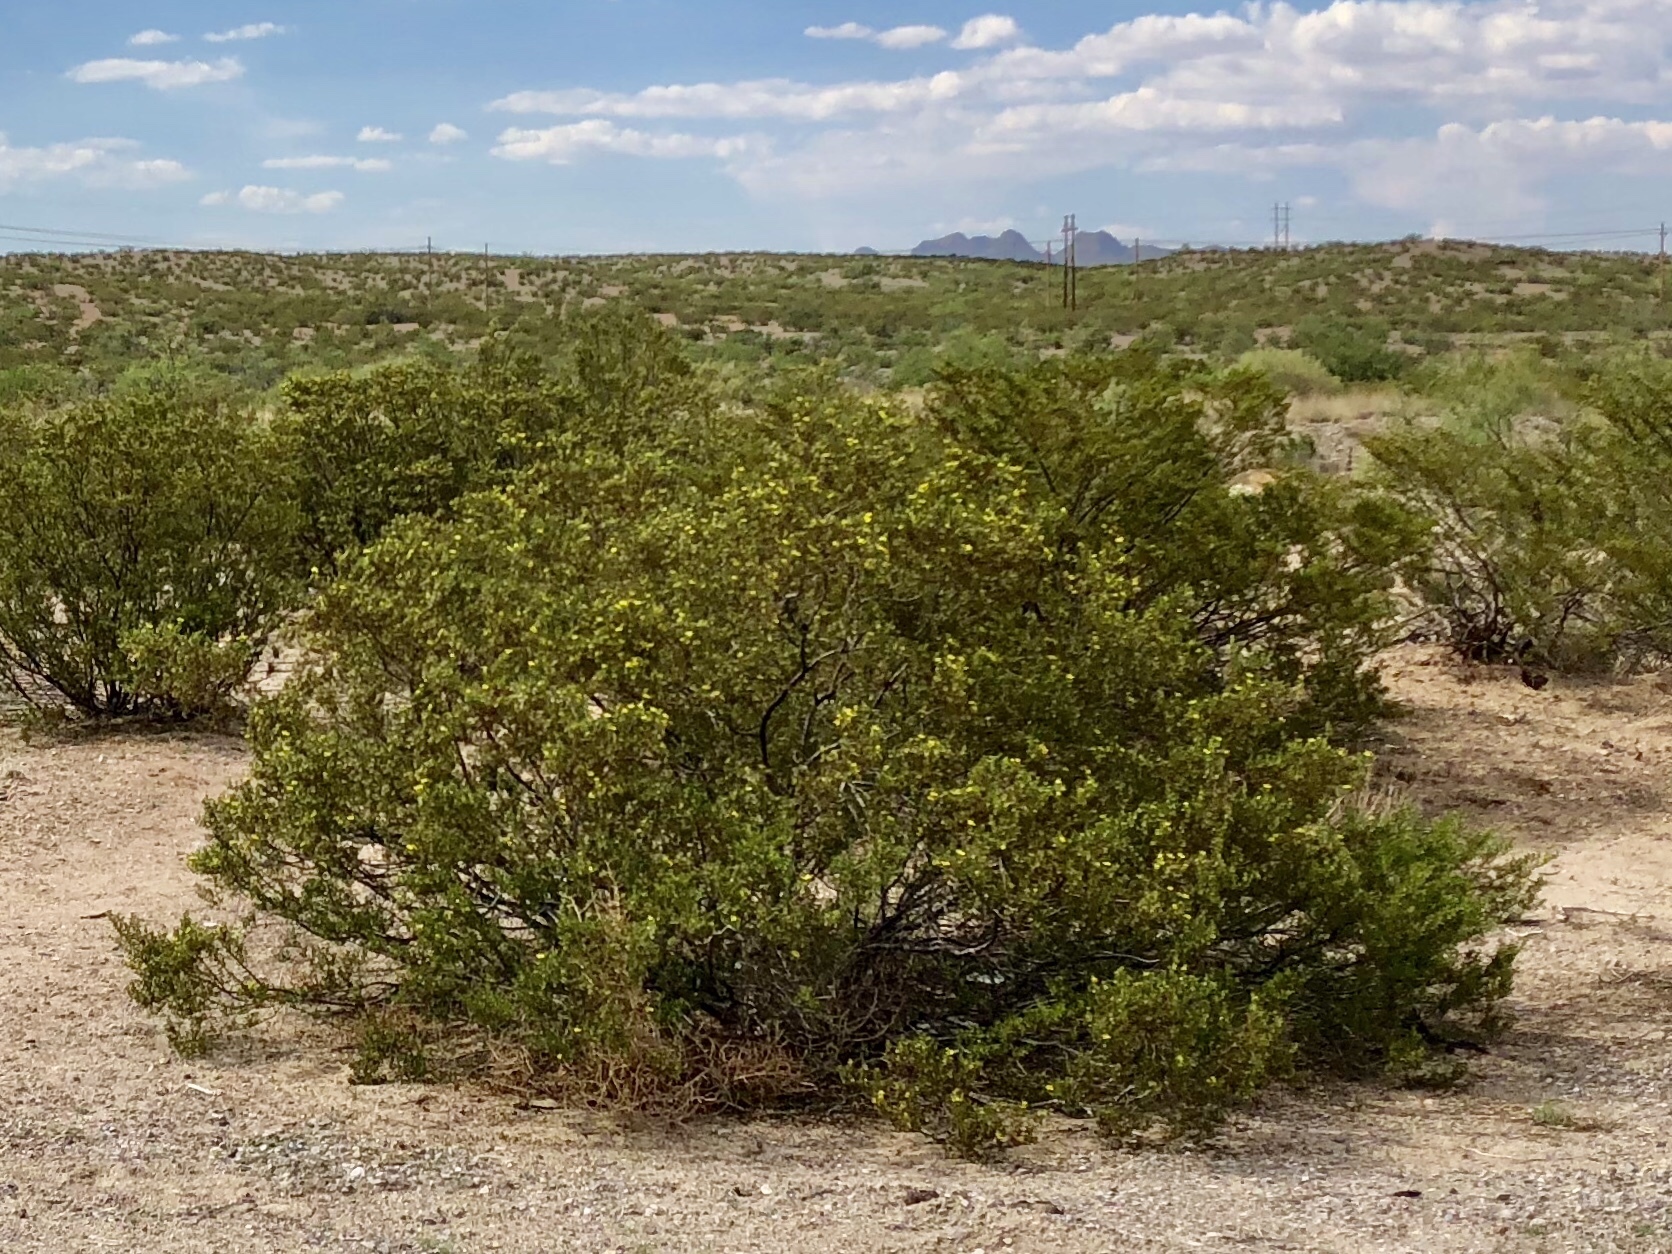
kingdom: Plantae
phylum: Tracheophyta
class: Magnoliopsida
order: Zygophyllales
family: Zygophyllaceae
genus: Larrea
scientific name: Larrea tridentata
